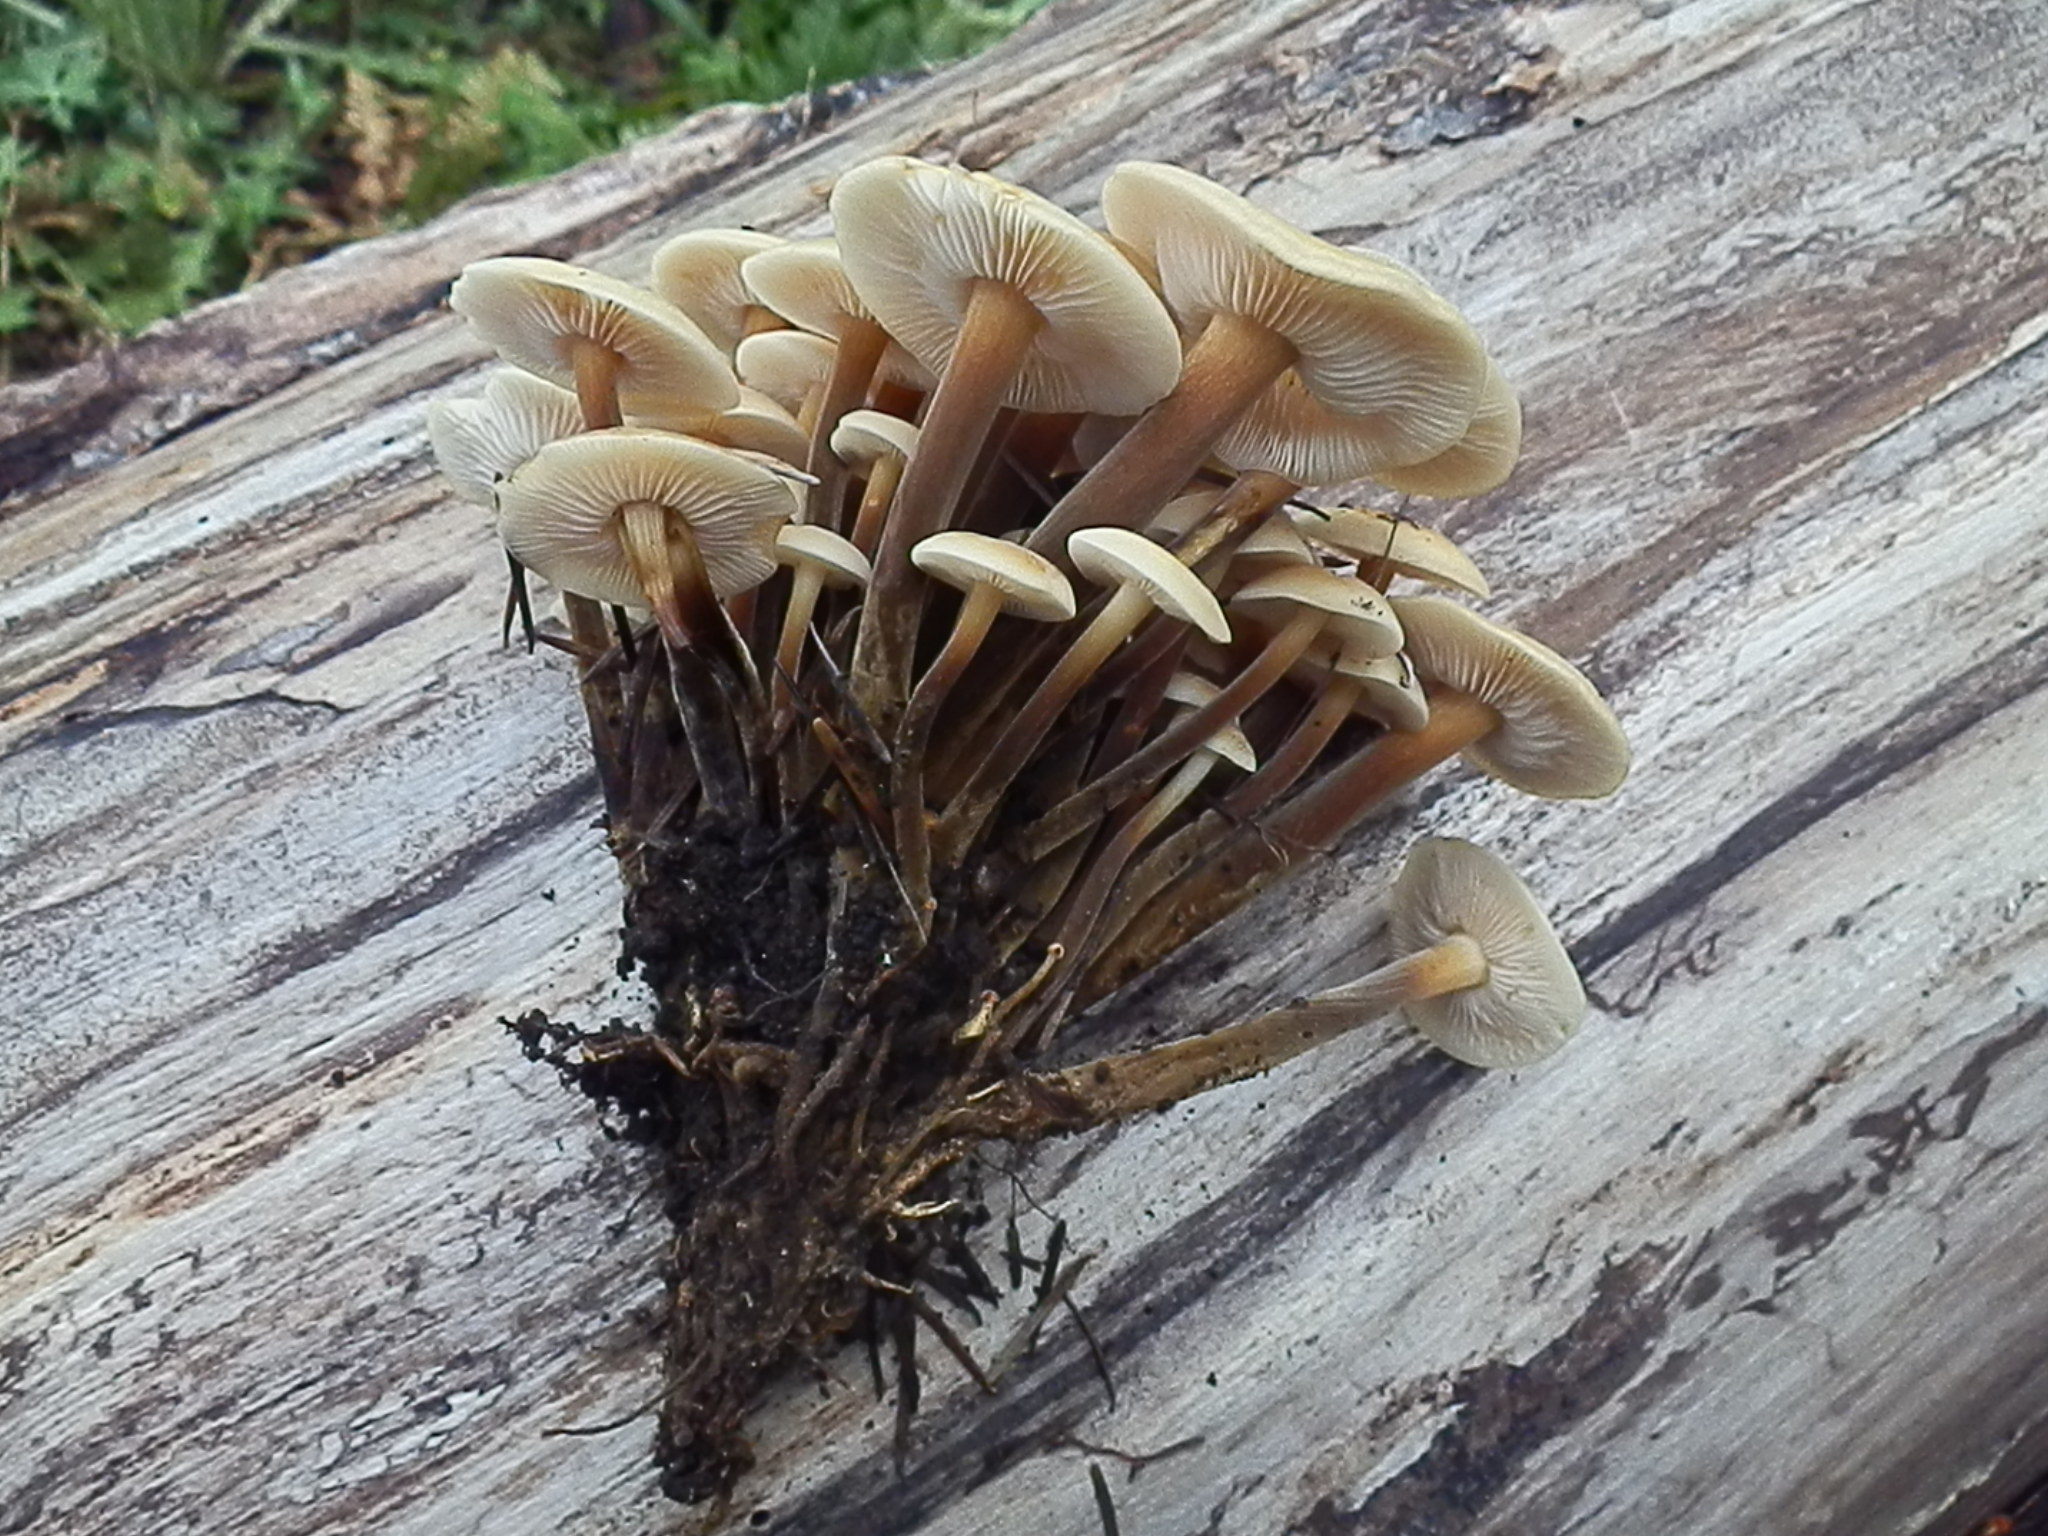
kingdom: Fungi
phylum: Basidiomycota
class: Agaricomycetes
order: Agaricales
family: Physalacriaceae
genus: Flammulina
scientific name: Flammulina populicola
